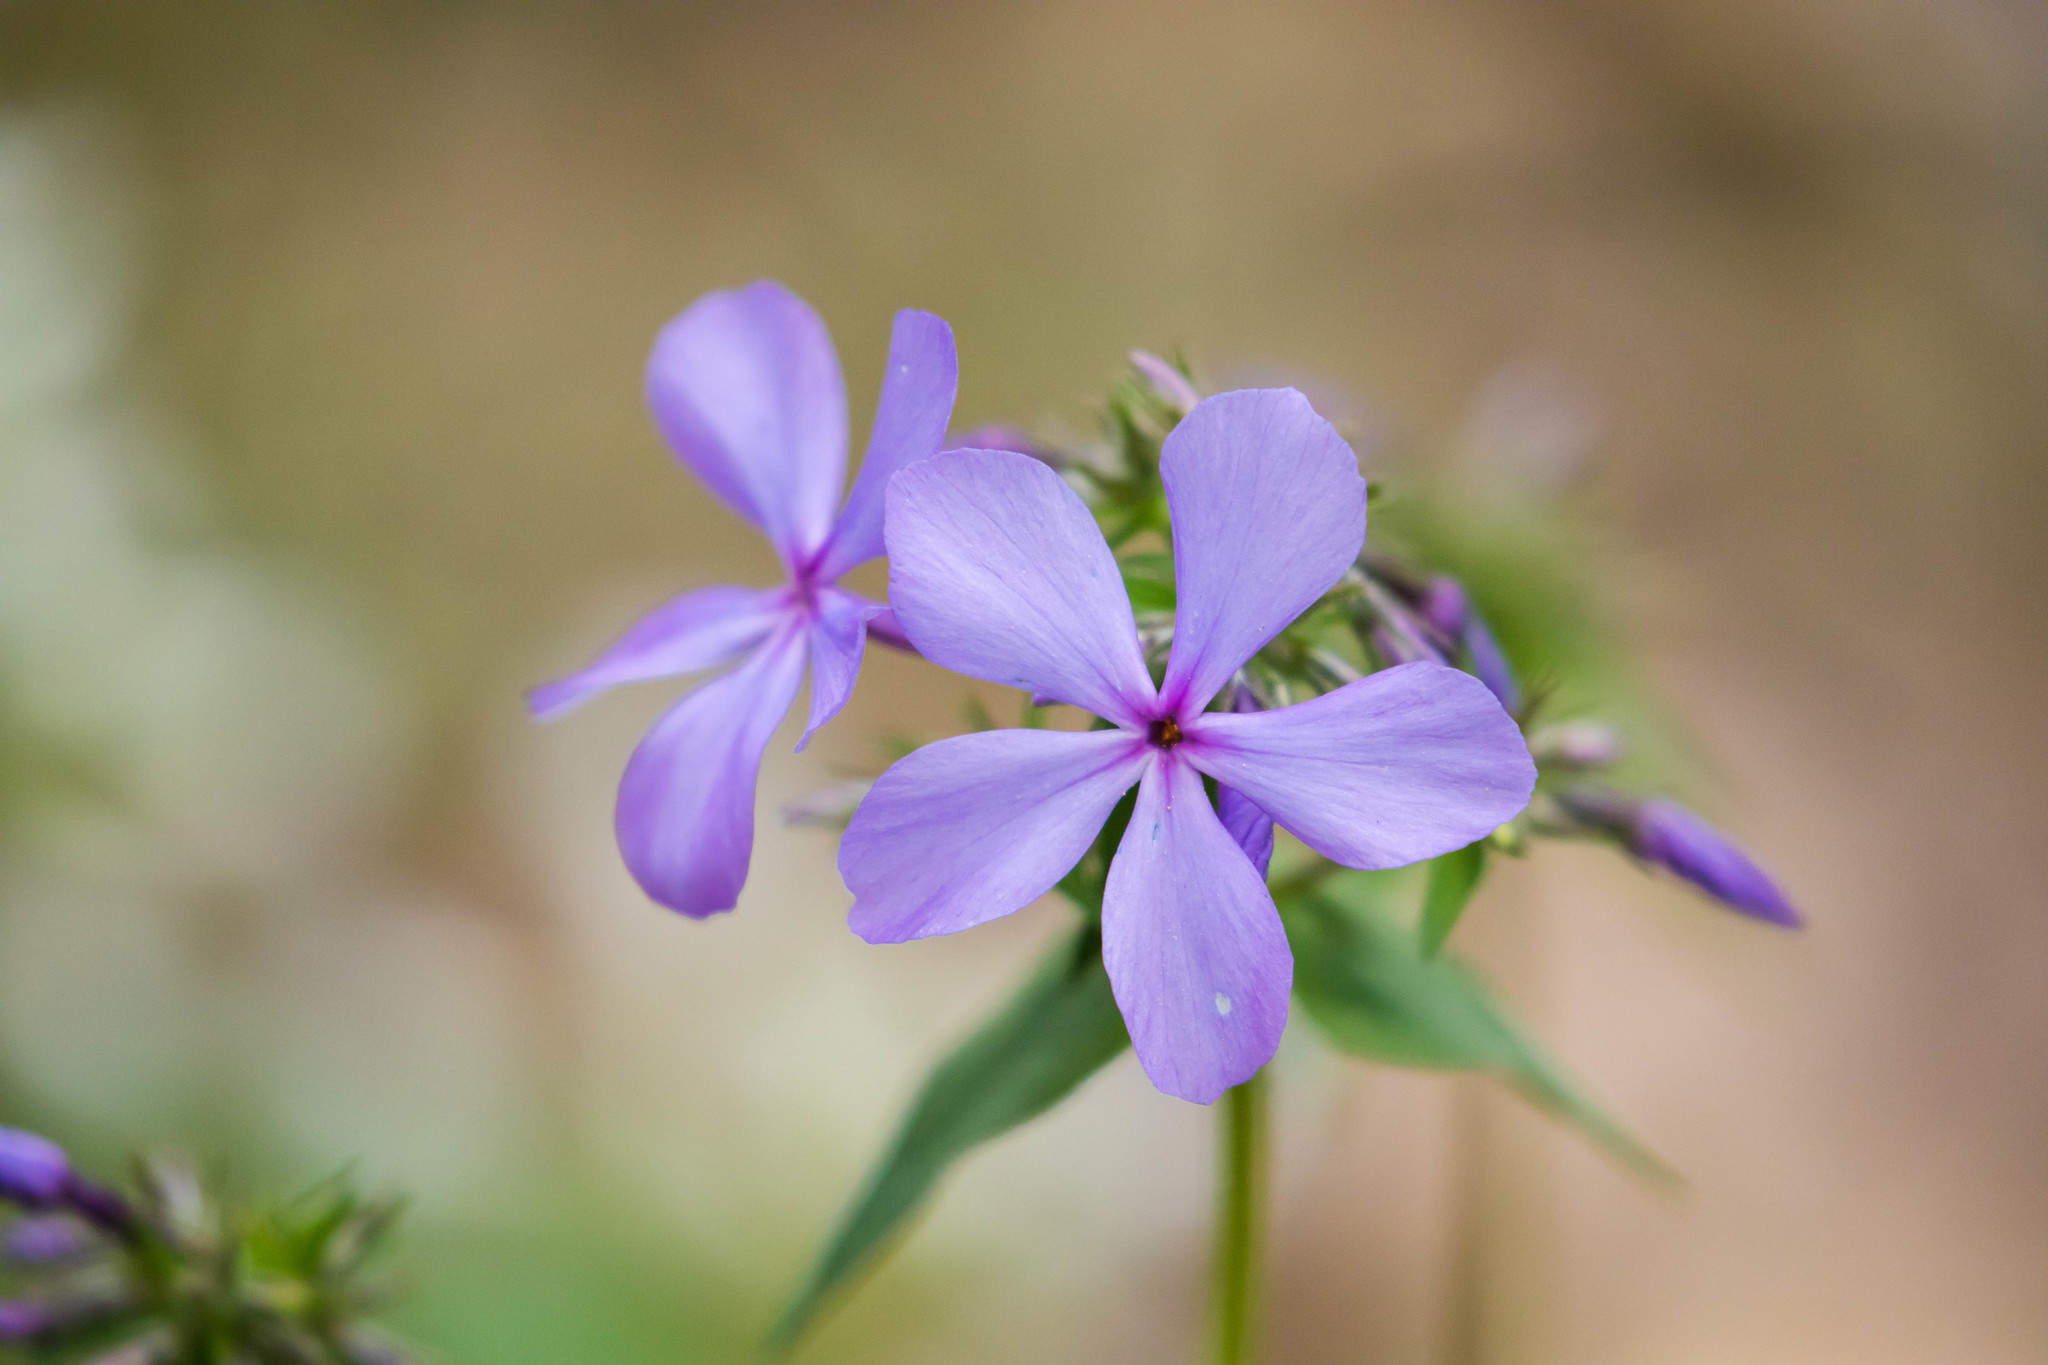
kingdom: Plantae
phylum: Tracheophyta
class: Magnoliopsida
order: Ericales
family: Polemoniaceae
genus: Phlox
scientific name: Phlox divaricata
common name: Blue phlox
